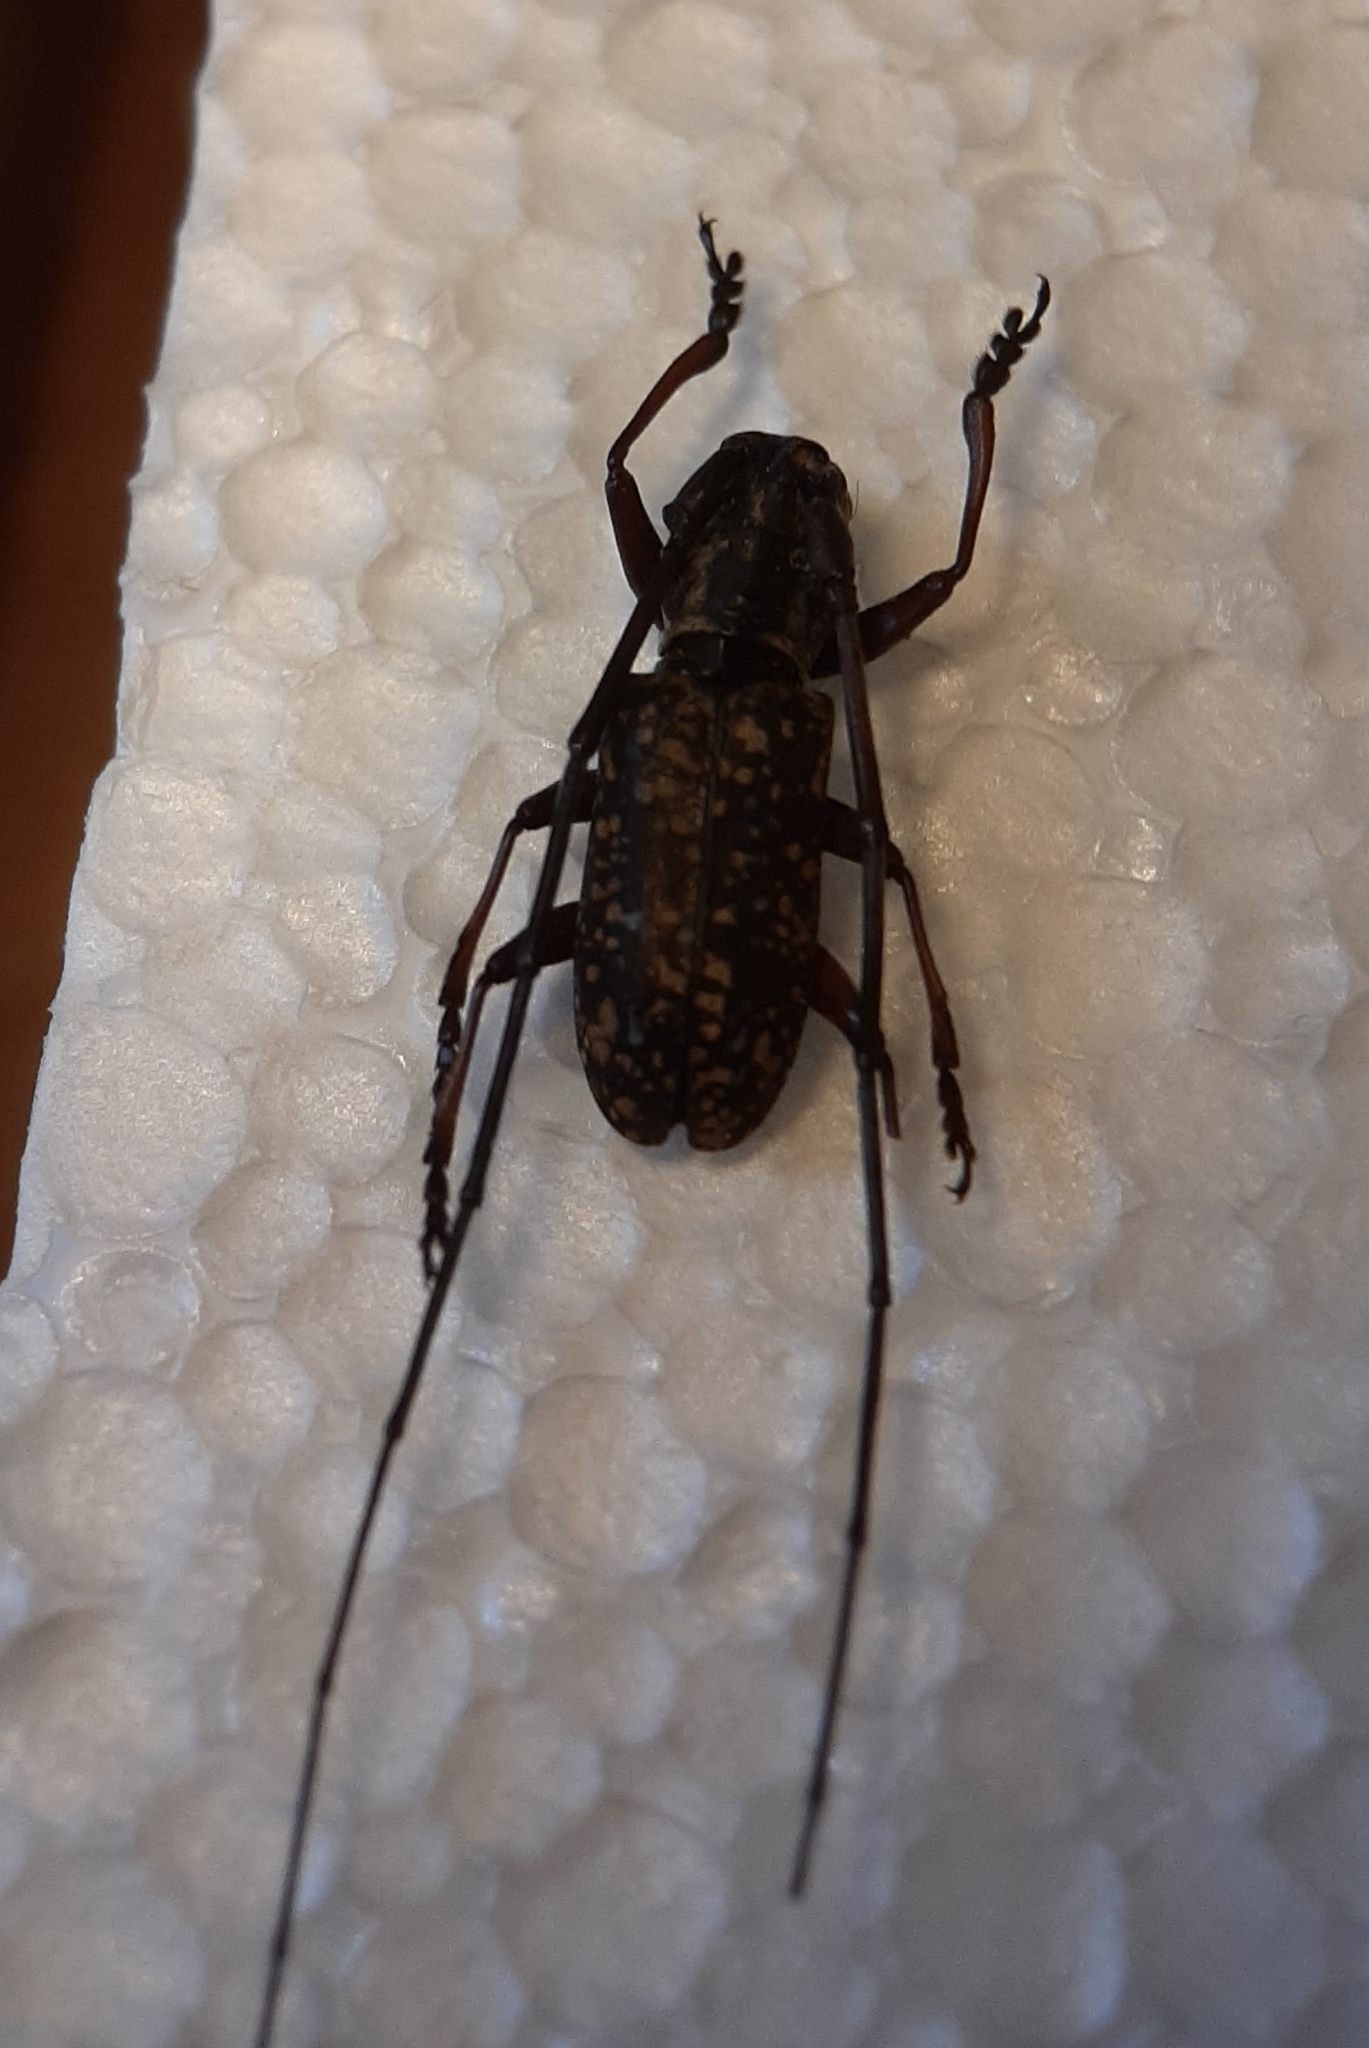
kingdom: Animalia
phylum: Arthropoda
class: Insecta
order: Coleoptera
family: Cerambycidae
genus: Monochamus
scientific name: Monochamus sparsutus
